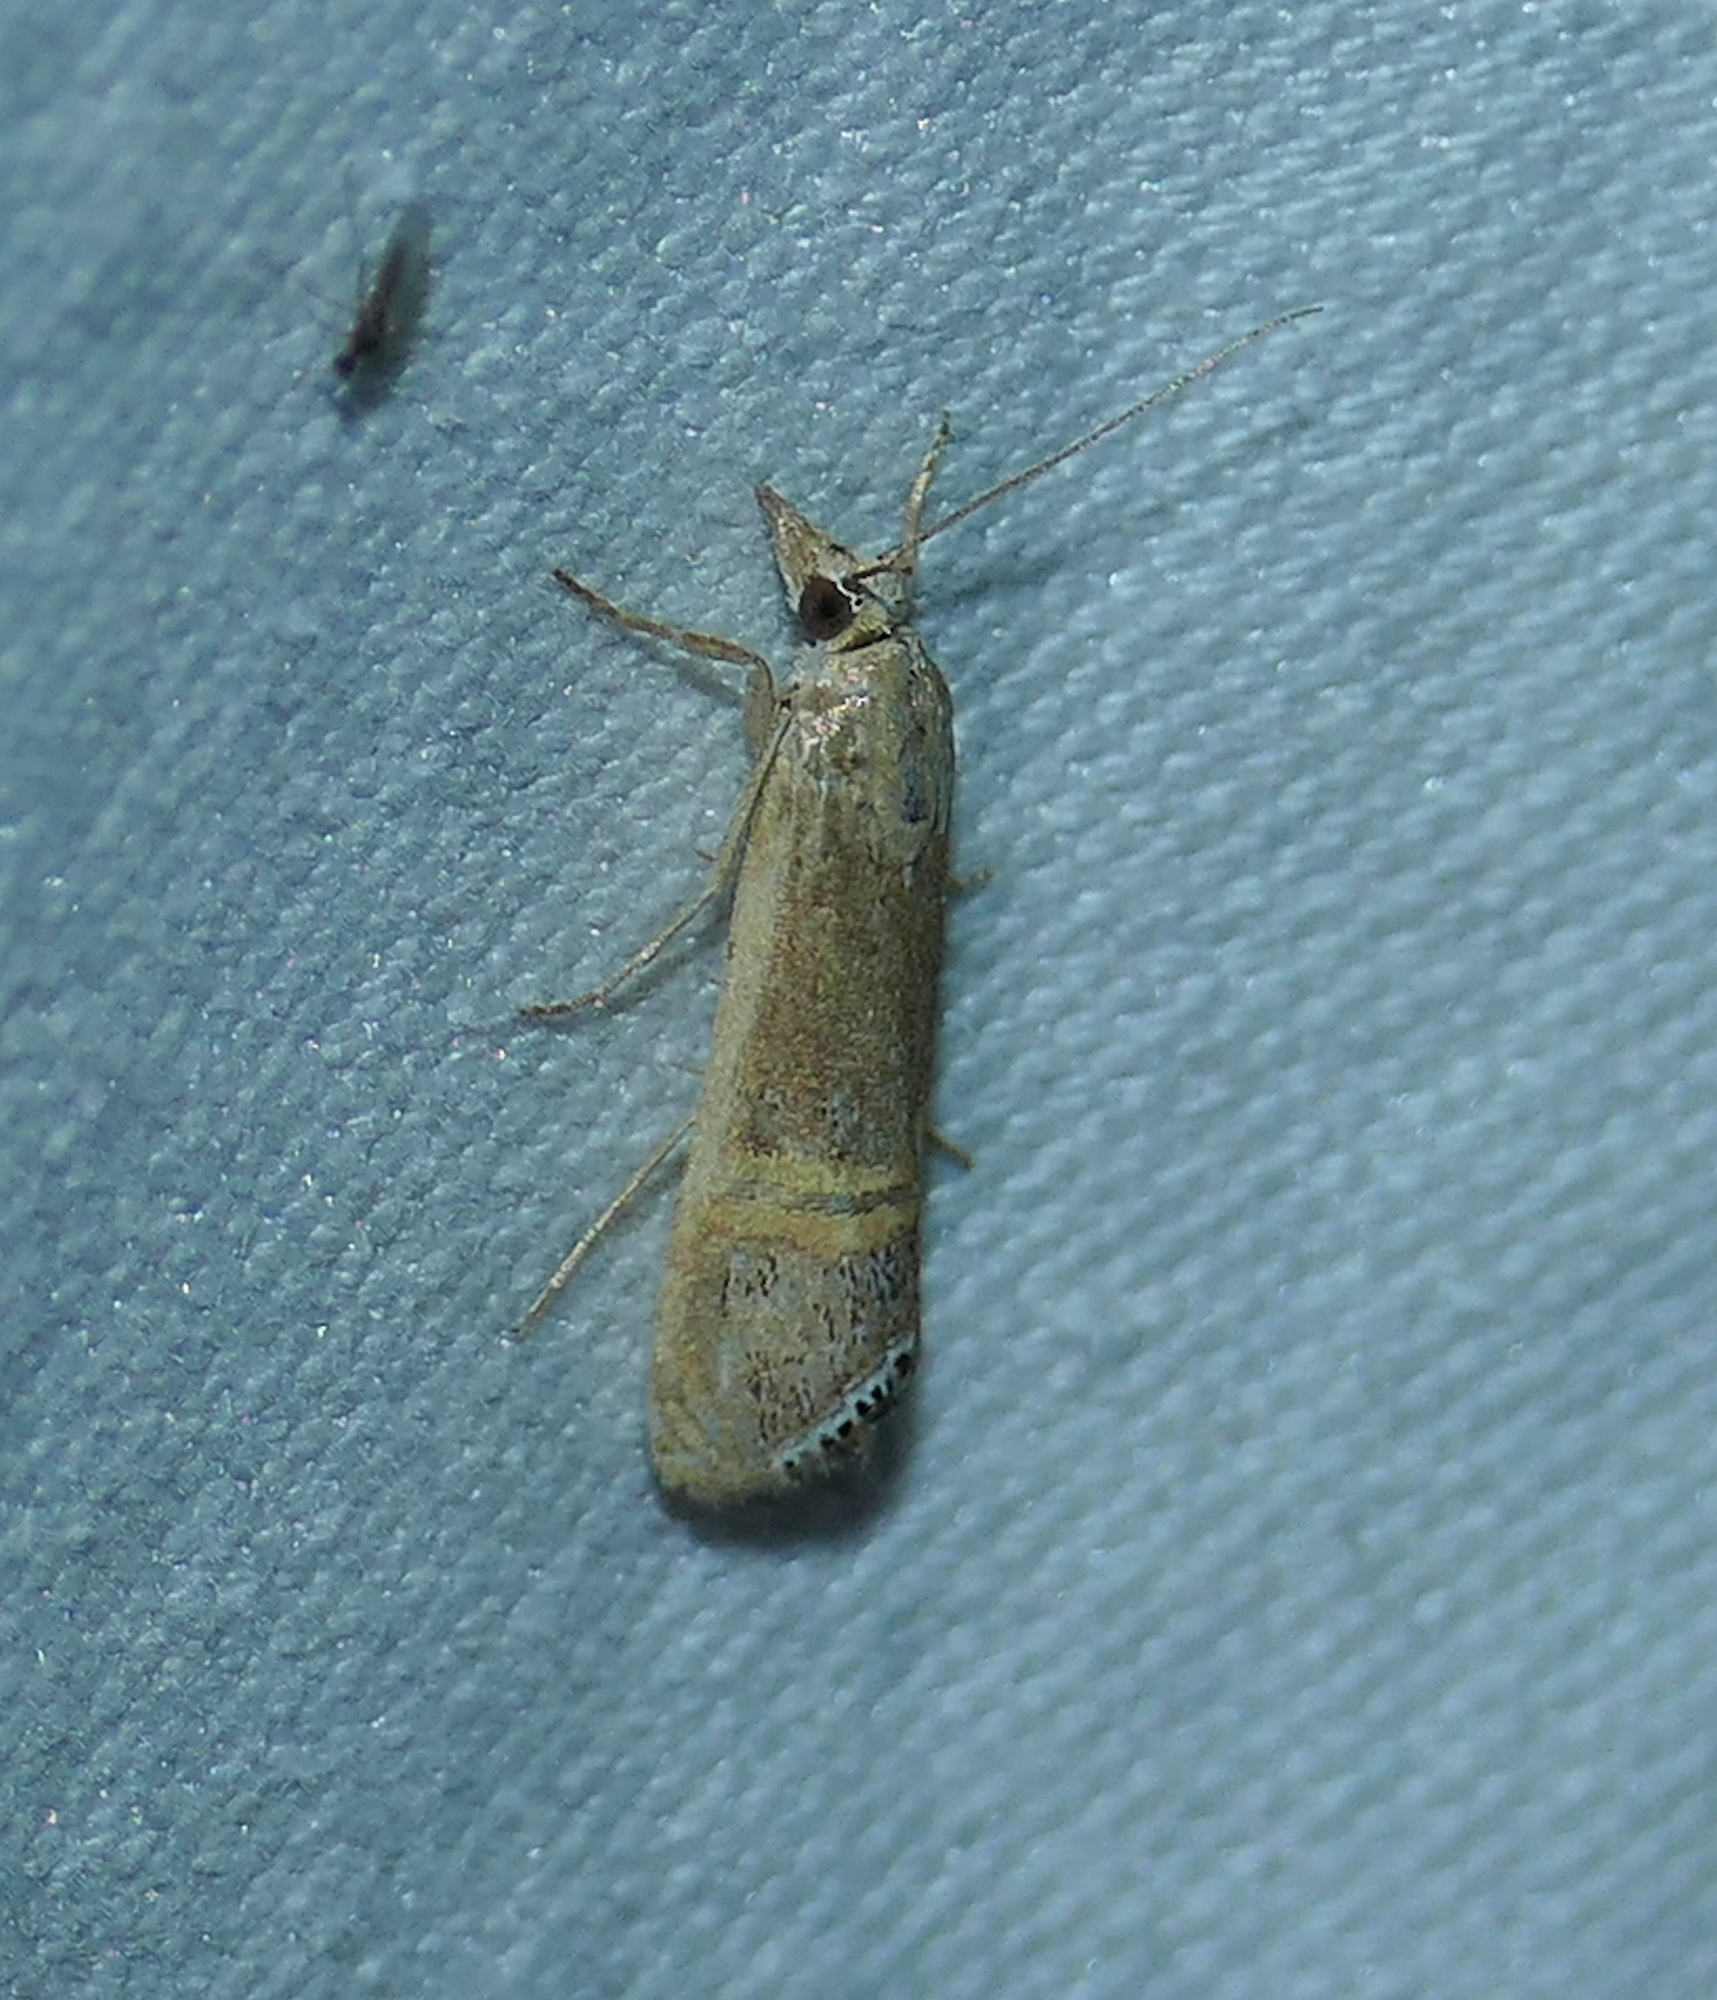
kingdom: Animalia
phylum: Arthropoda
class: Insecta
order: Lepidoptera
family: Crambidae
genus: Euchromius
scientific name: Euchromius ocellea
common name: Necklace veneer moth
